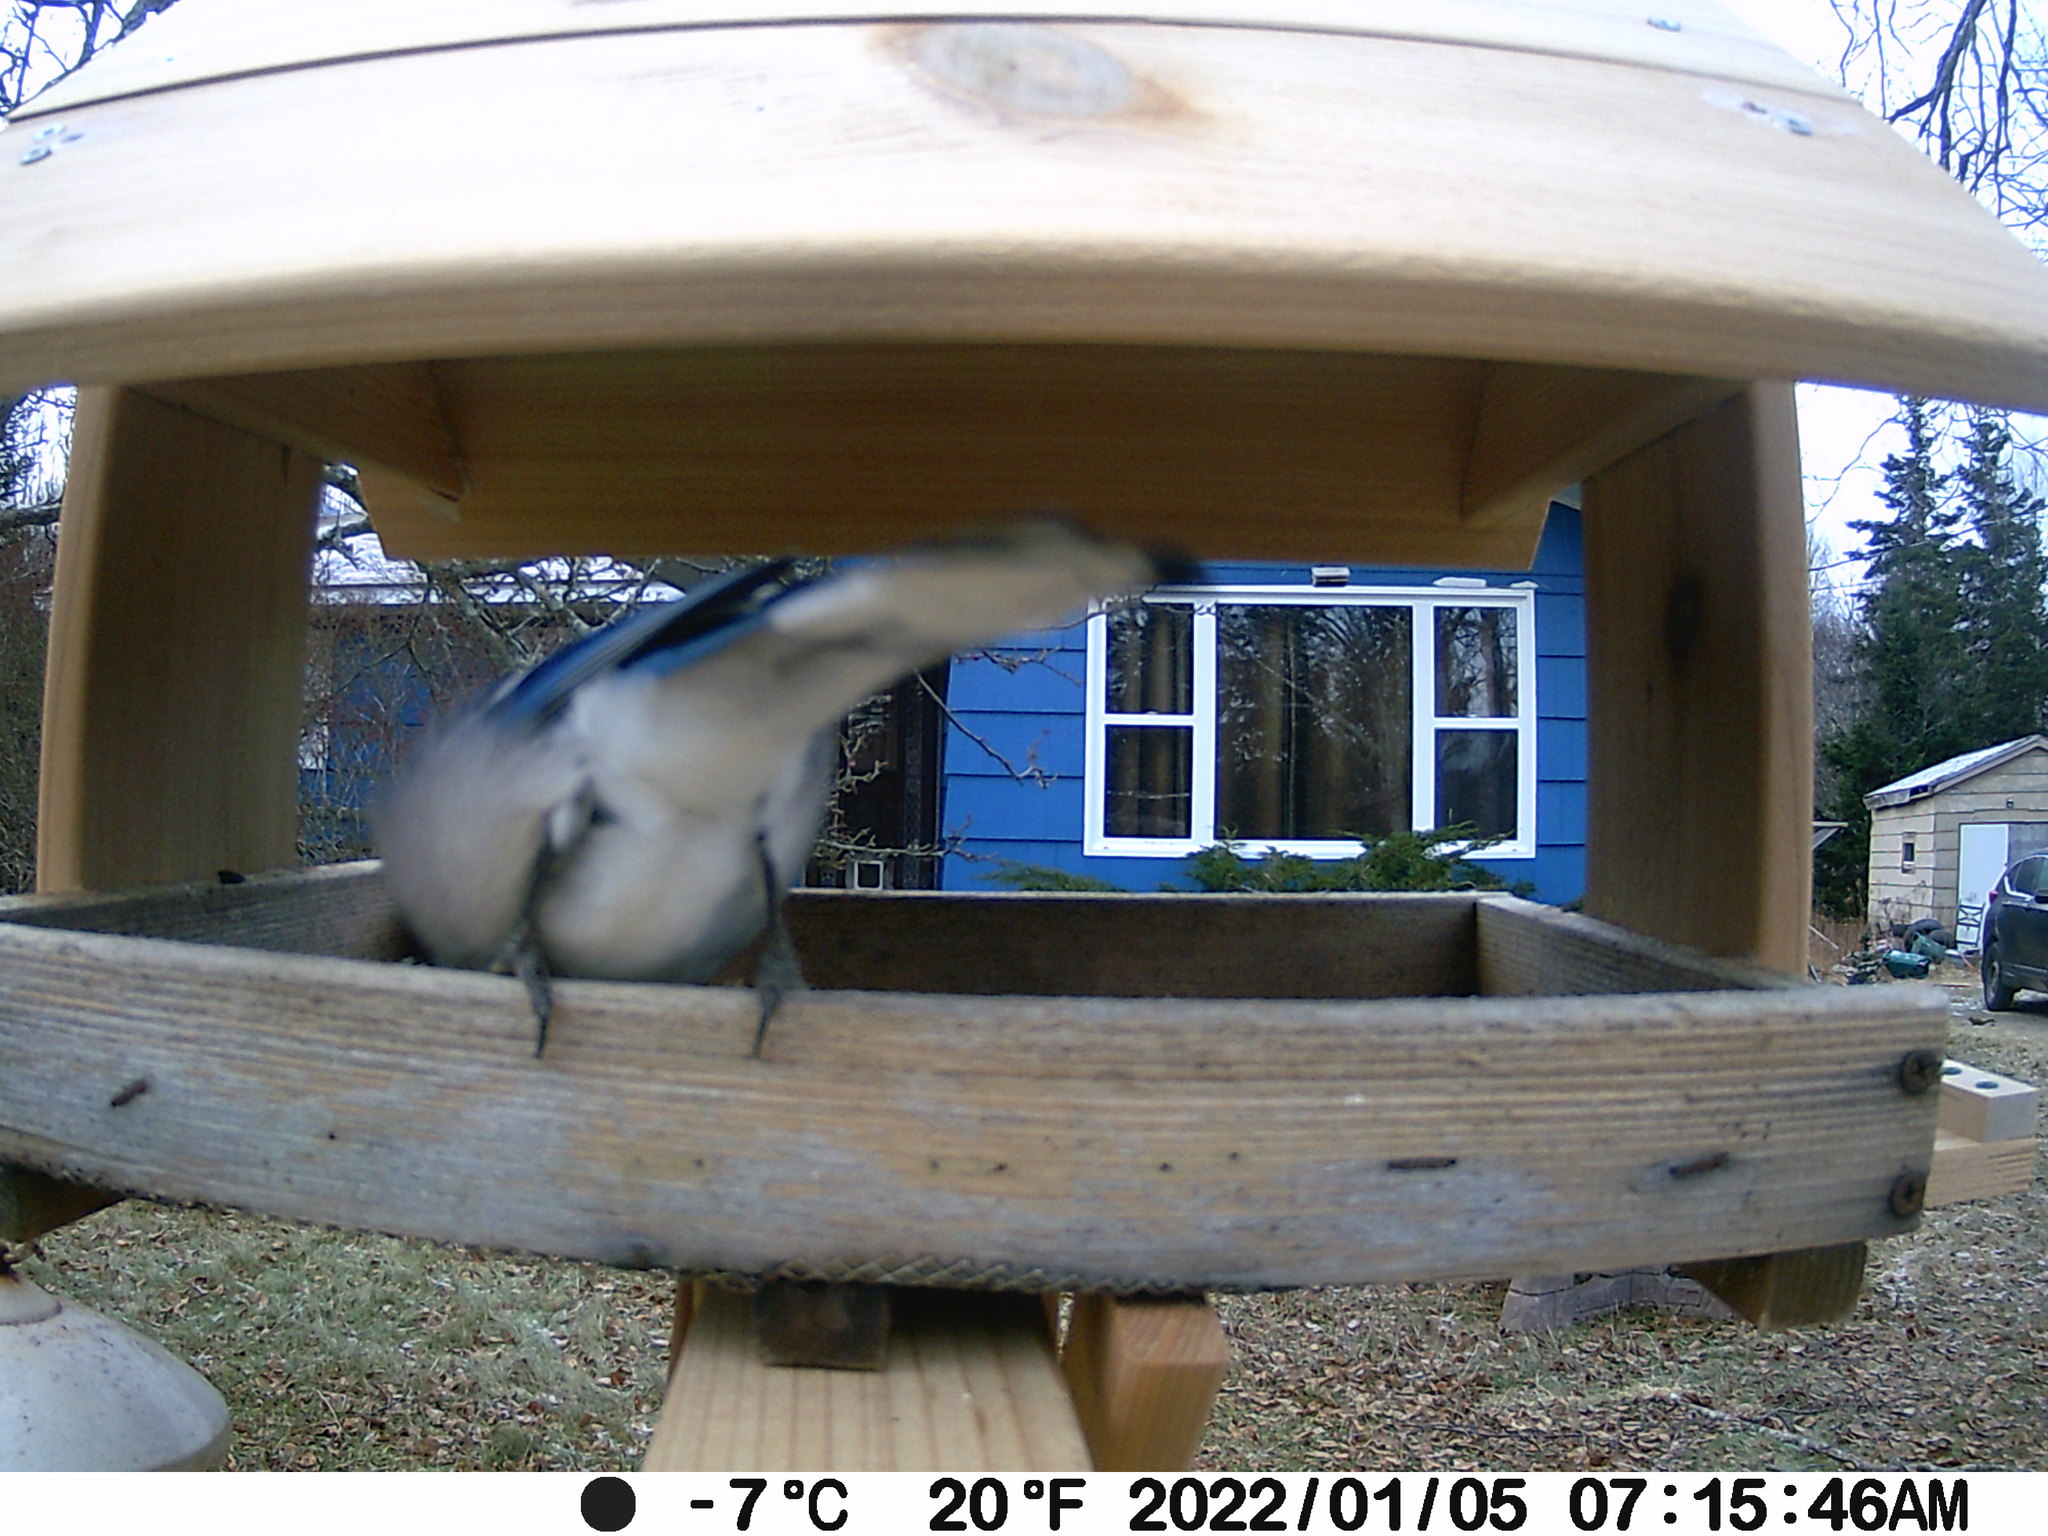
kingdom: Animalia
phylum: Chordata
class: Mammalia
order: Rodentia
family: Sciuridae
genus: Tamiasciurus
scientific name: Tamiasciurus hudsonicus
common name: Red squirrel
